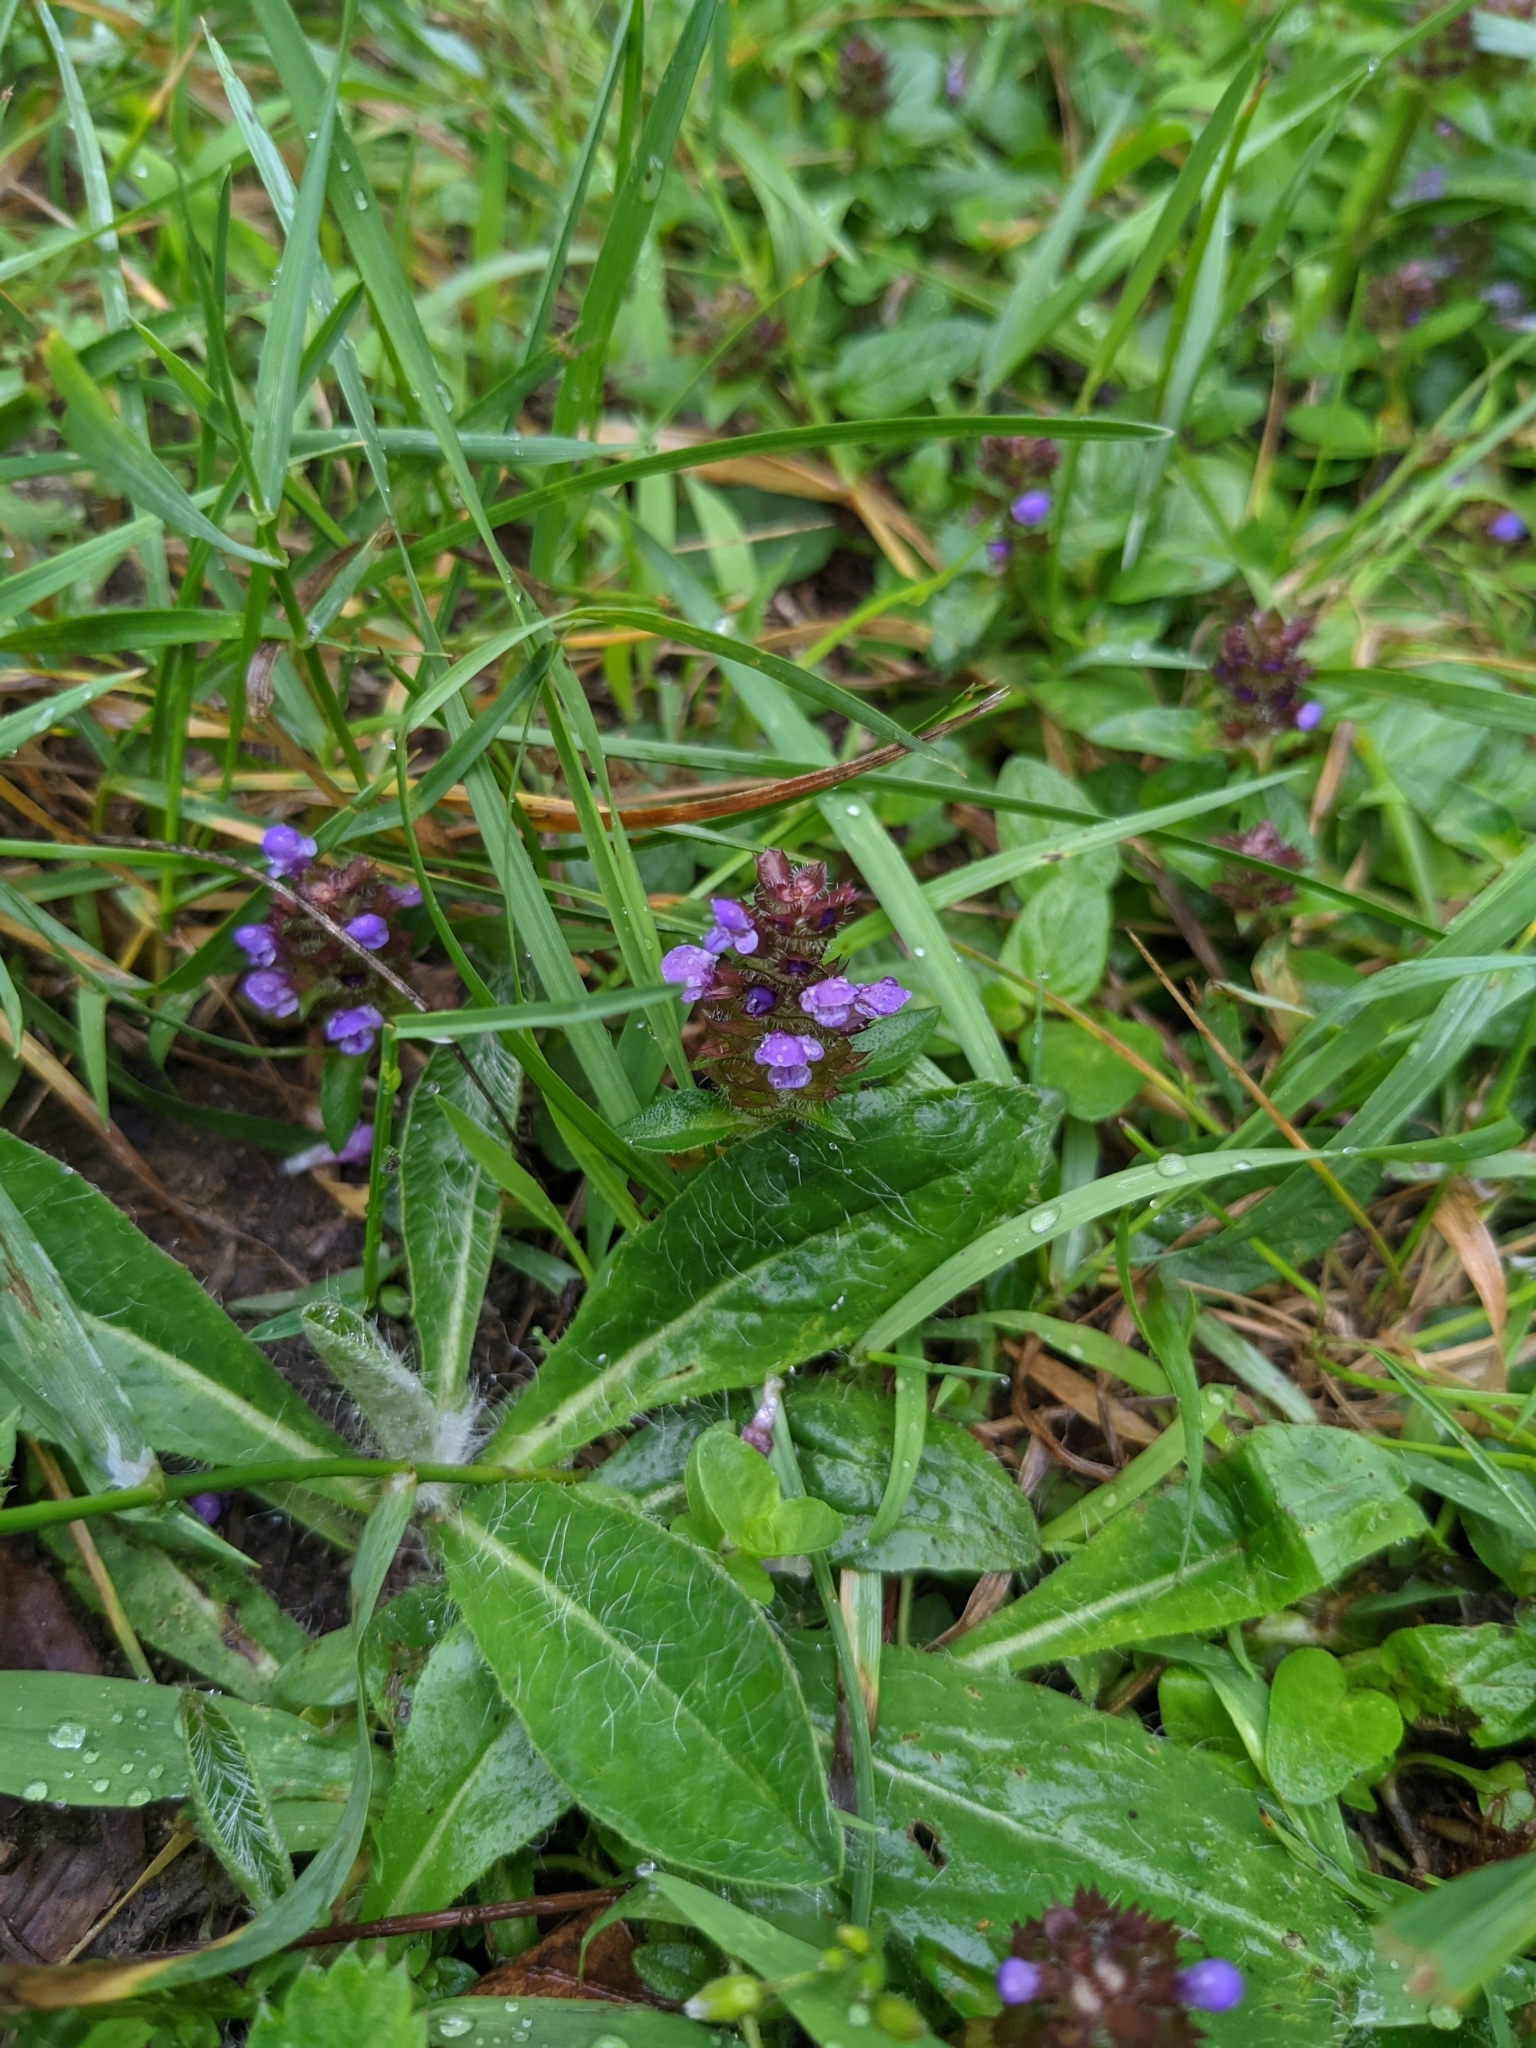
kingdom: Plantae
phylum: Tracheophyta
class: Magnoliopsida
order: Lamiales
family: Lamiaceae
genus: Prunella
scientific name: Prunella vulgaris
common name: Heal-all
